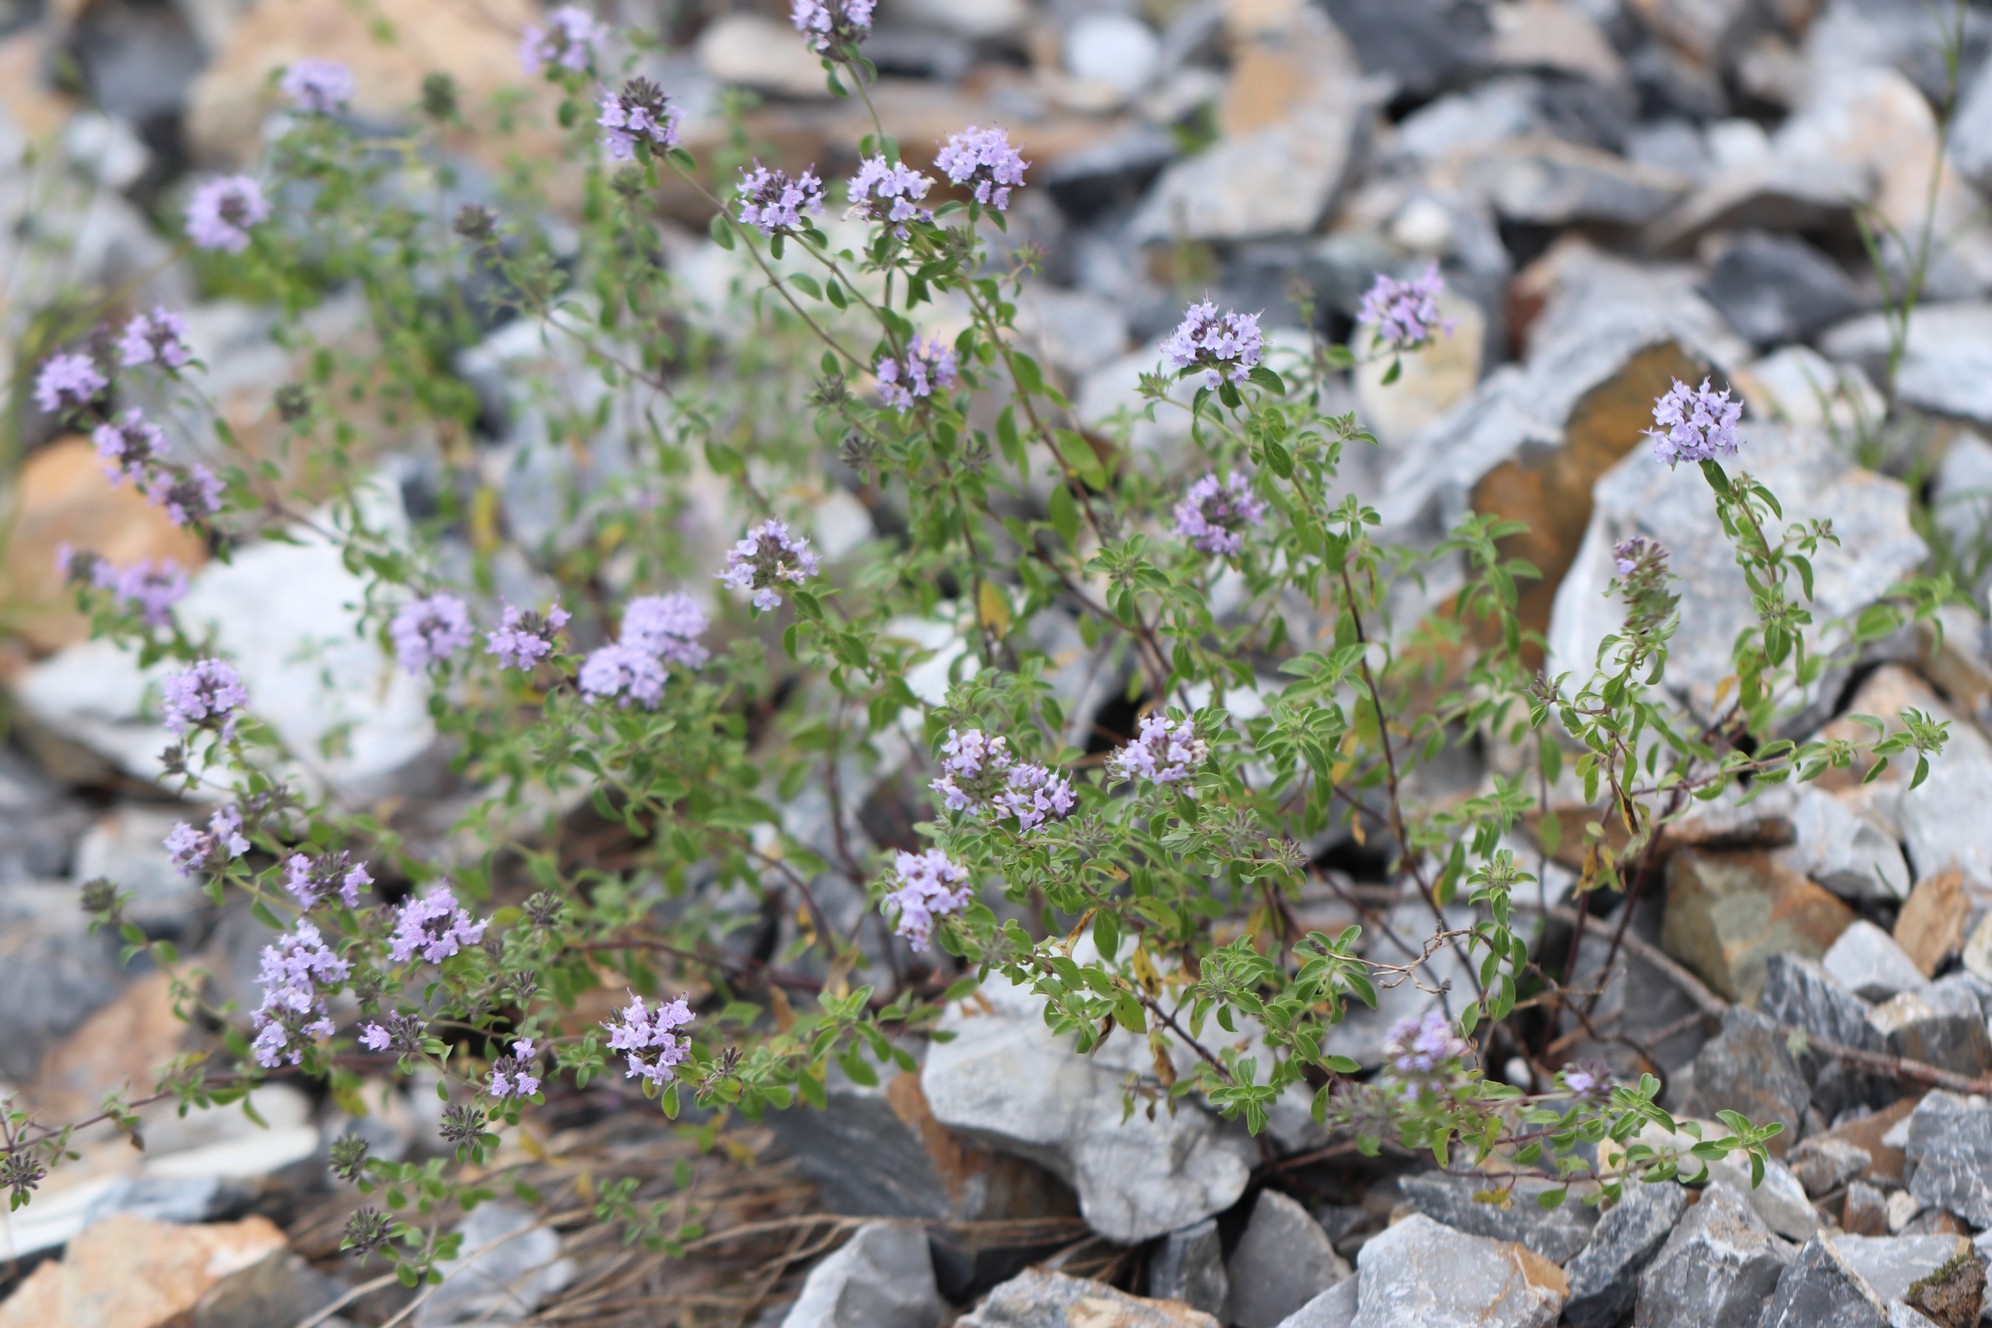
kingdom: Plantae
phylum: Tracheophyta
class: Magnoliopsida
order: Lamiales
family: Lamiaceae
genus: Ziziphora
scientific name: Ziziphora clinopodioides
